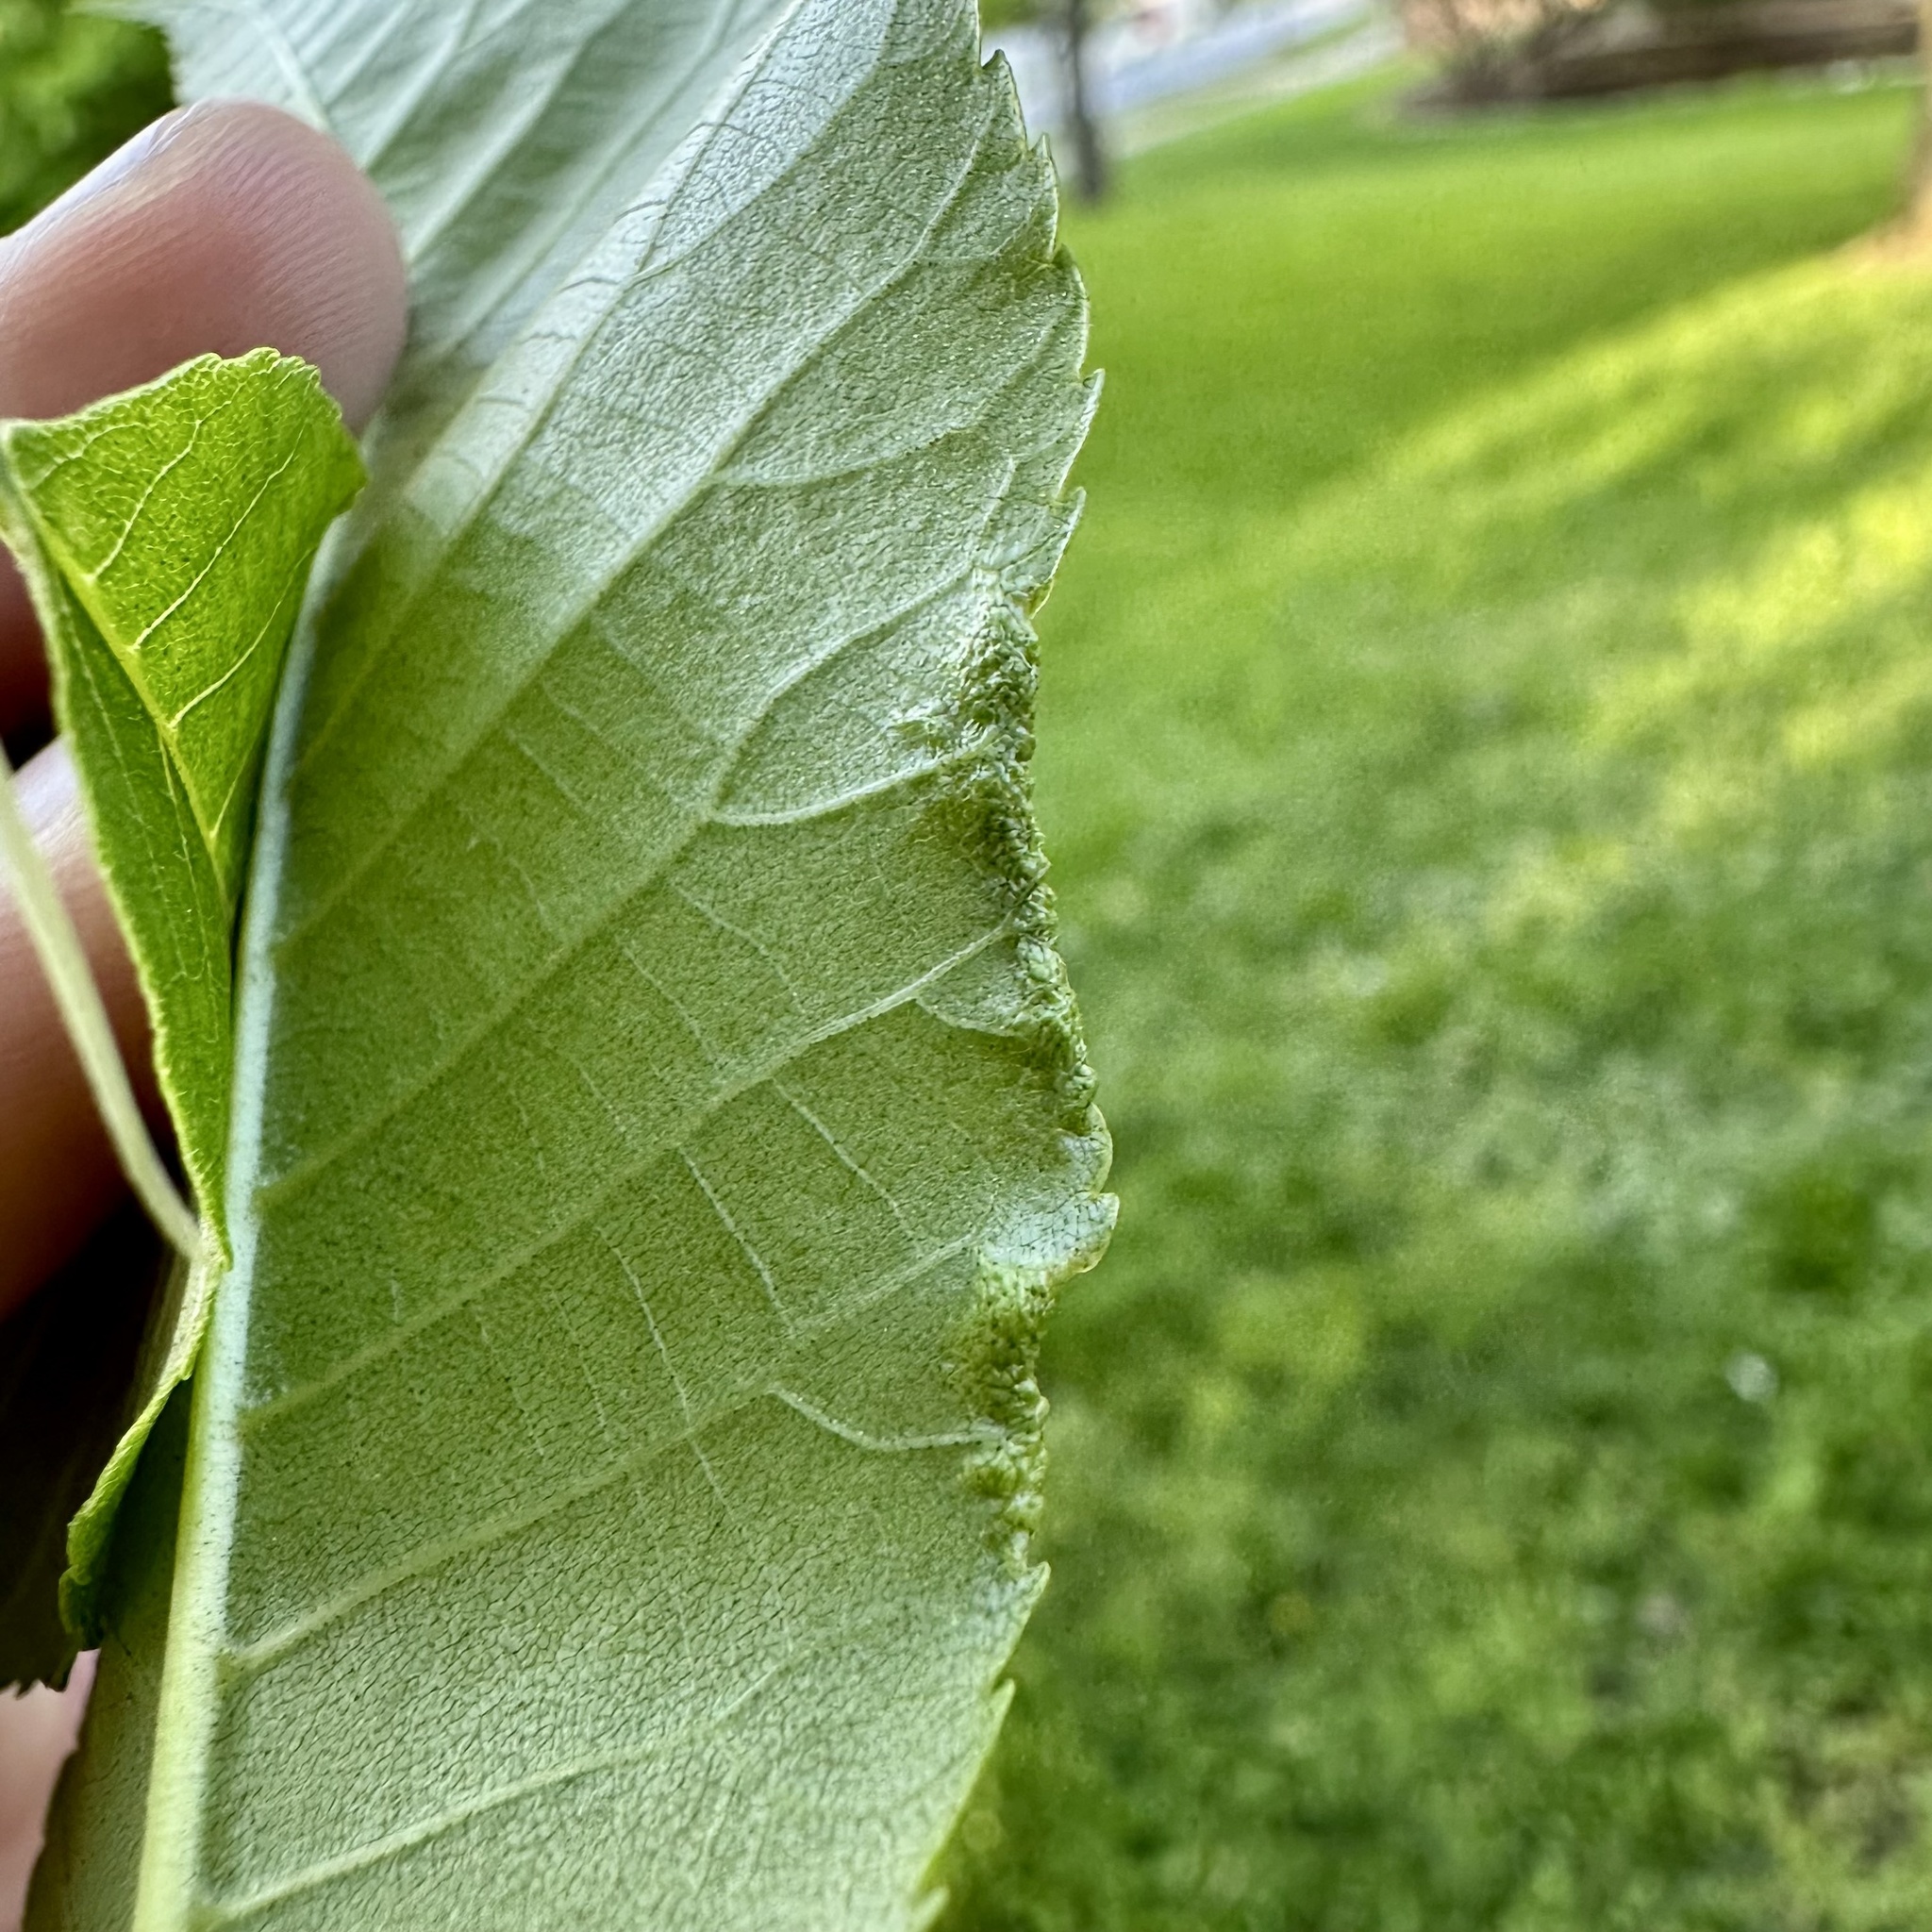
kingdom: Animalia
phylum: Arthropoda
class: Arachnida
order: Trombidiformes
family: Eriophyidae
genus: Aceria
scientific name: Aceria carlinae
